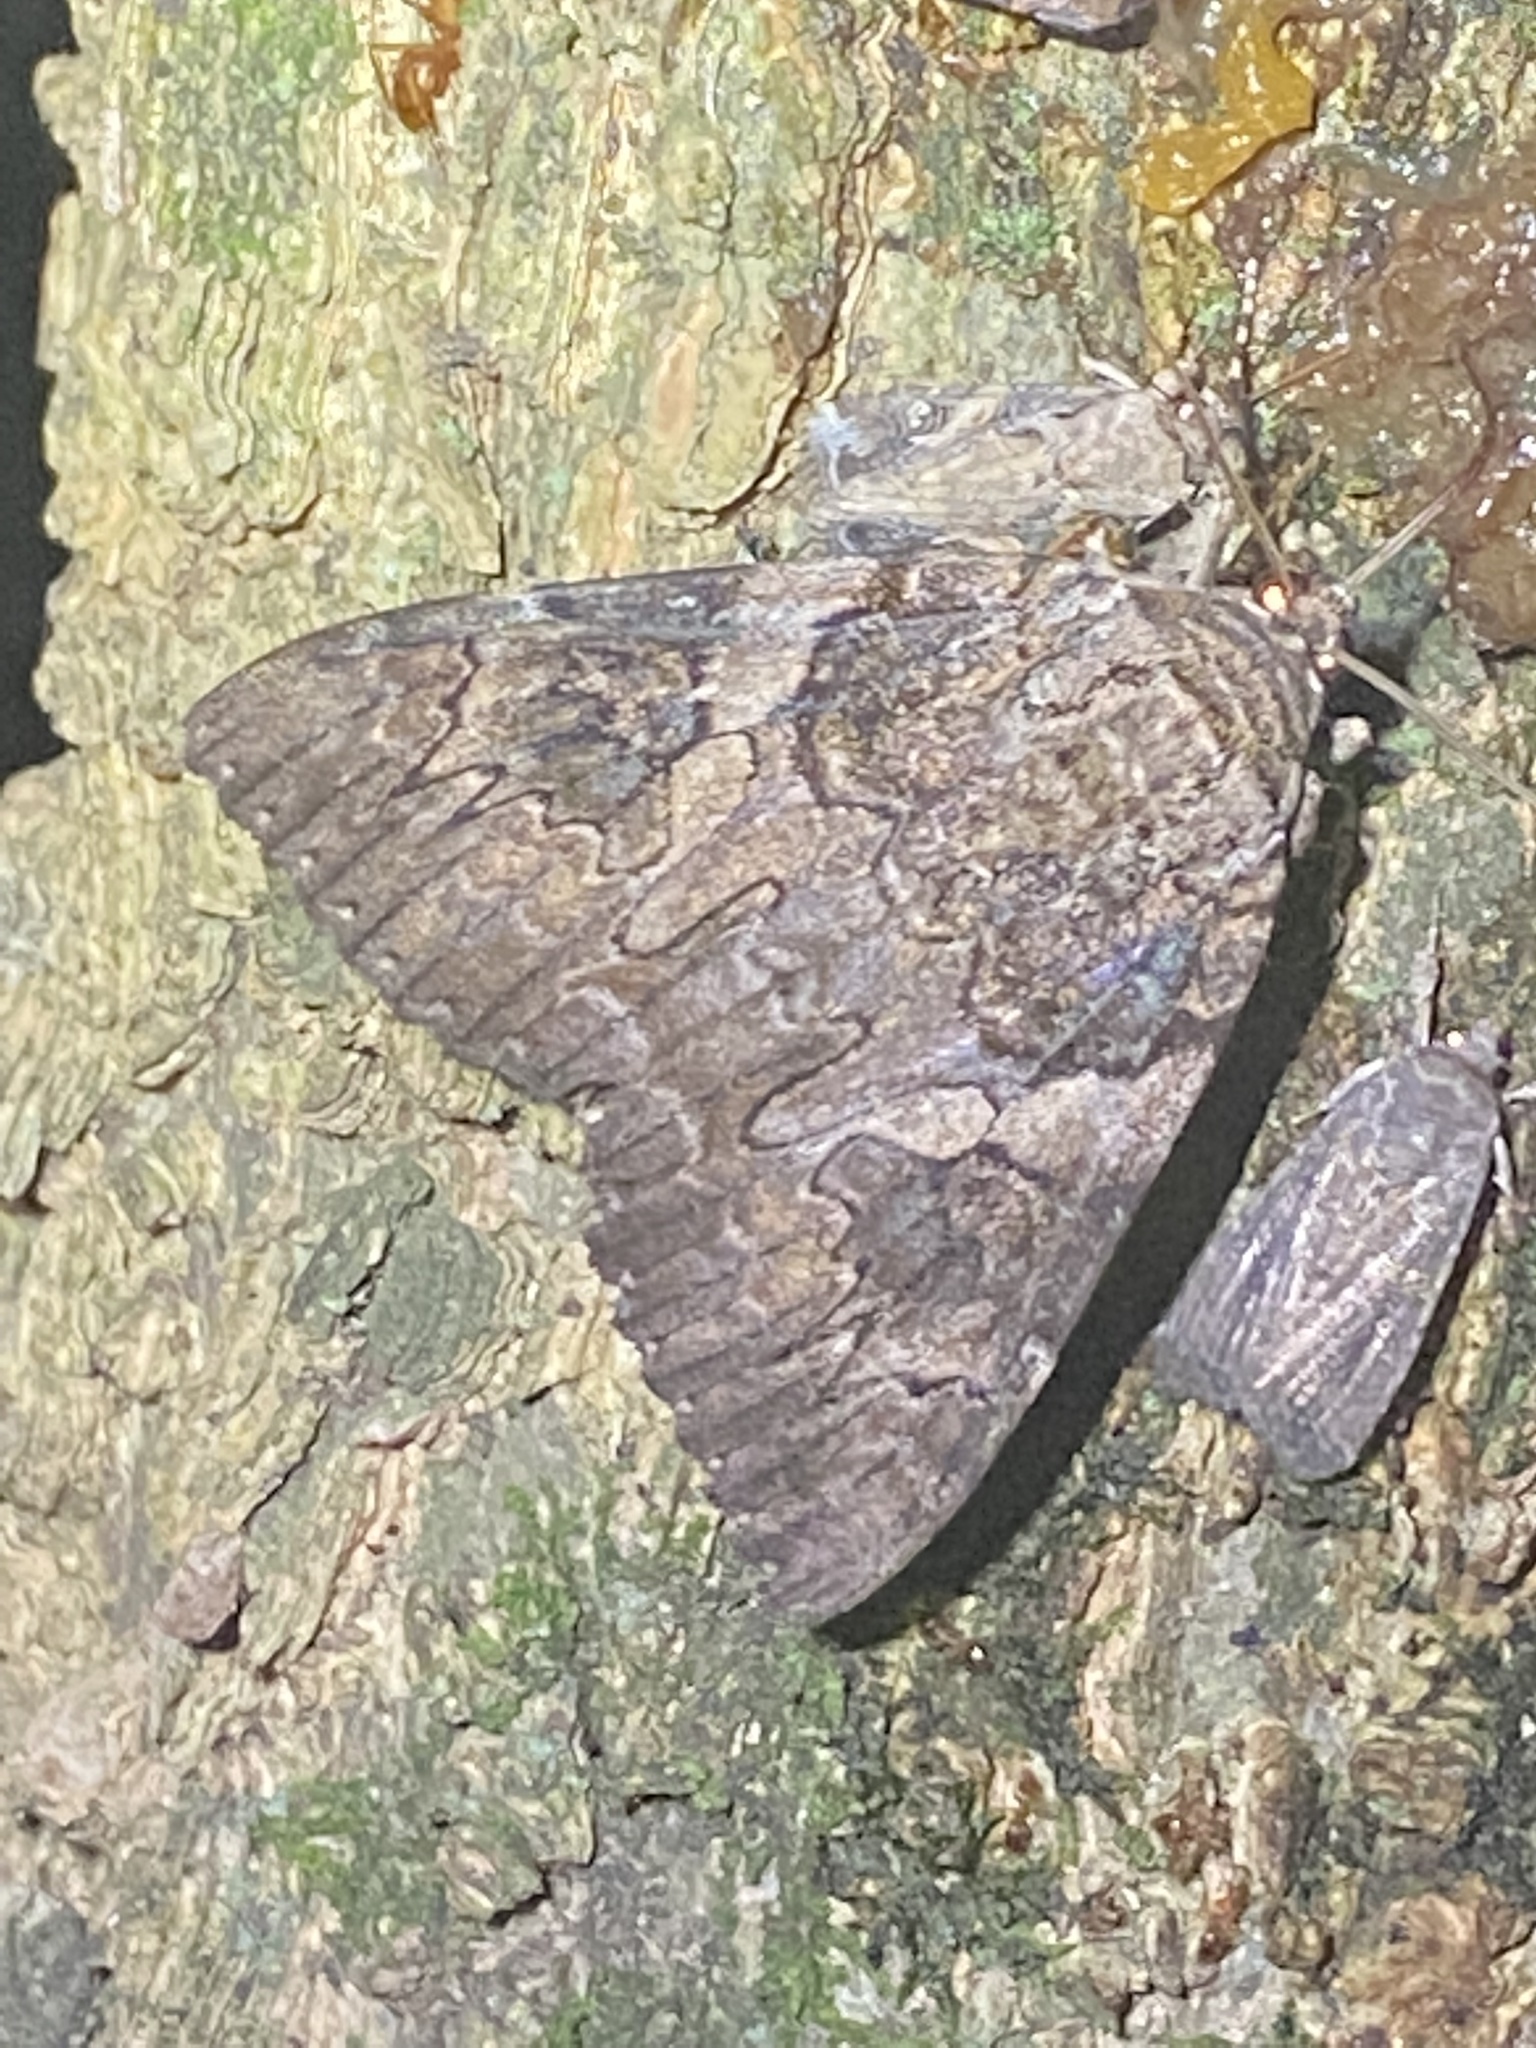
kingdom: Animalia
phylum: Arthropoda
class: Insecta
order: Lepidoptera
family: Erebidae
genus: Catocala
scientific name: Catocala piatrix
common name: The penitent underwing
